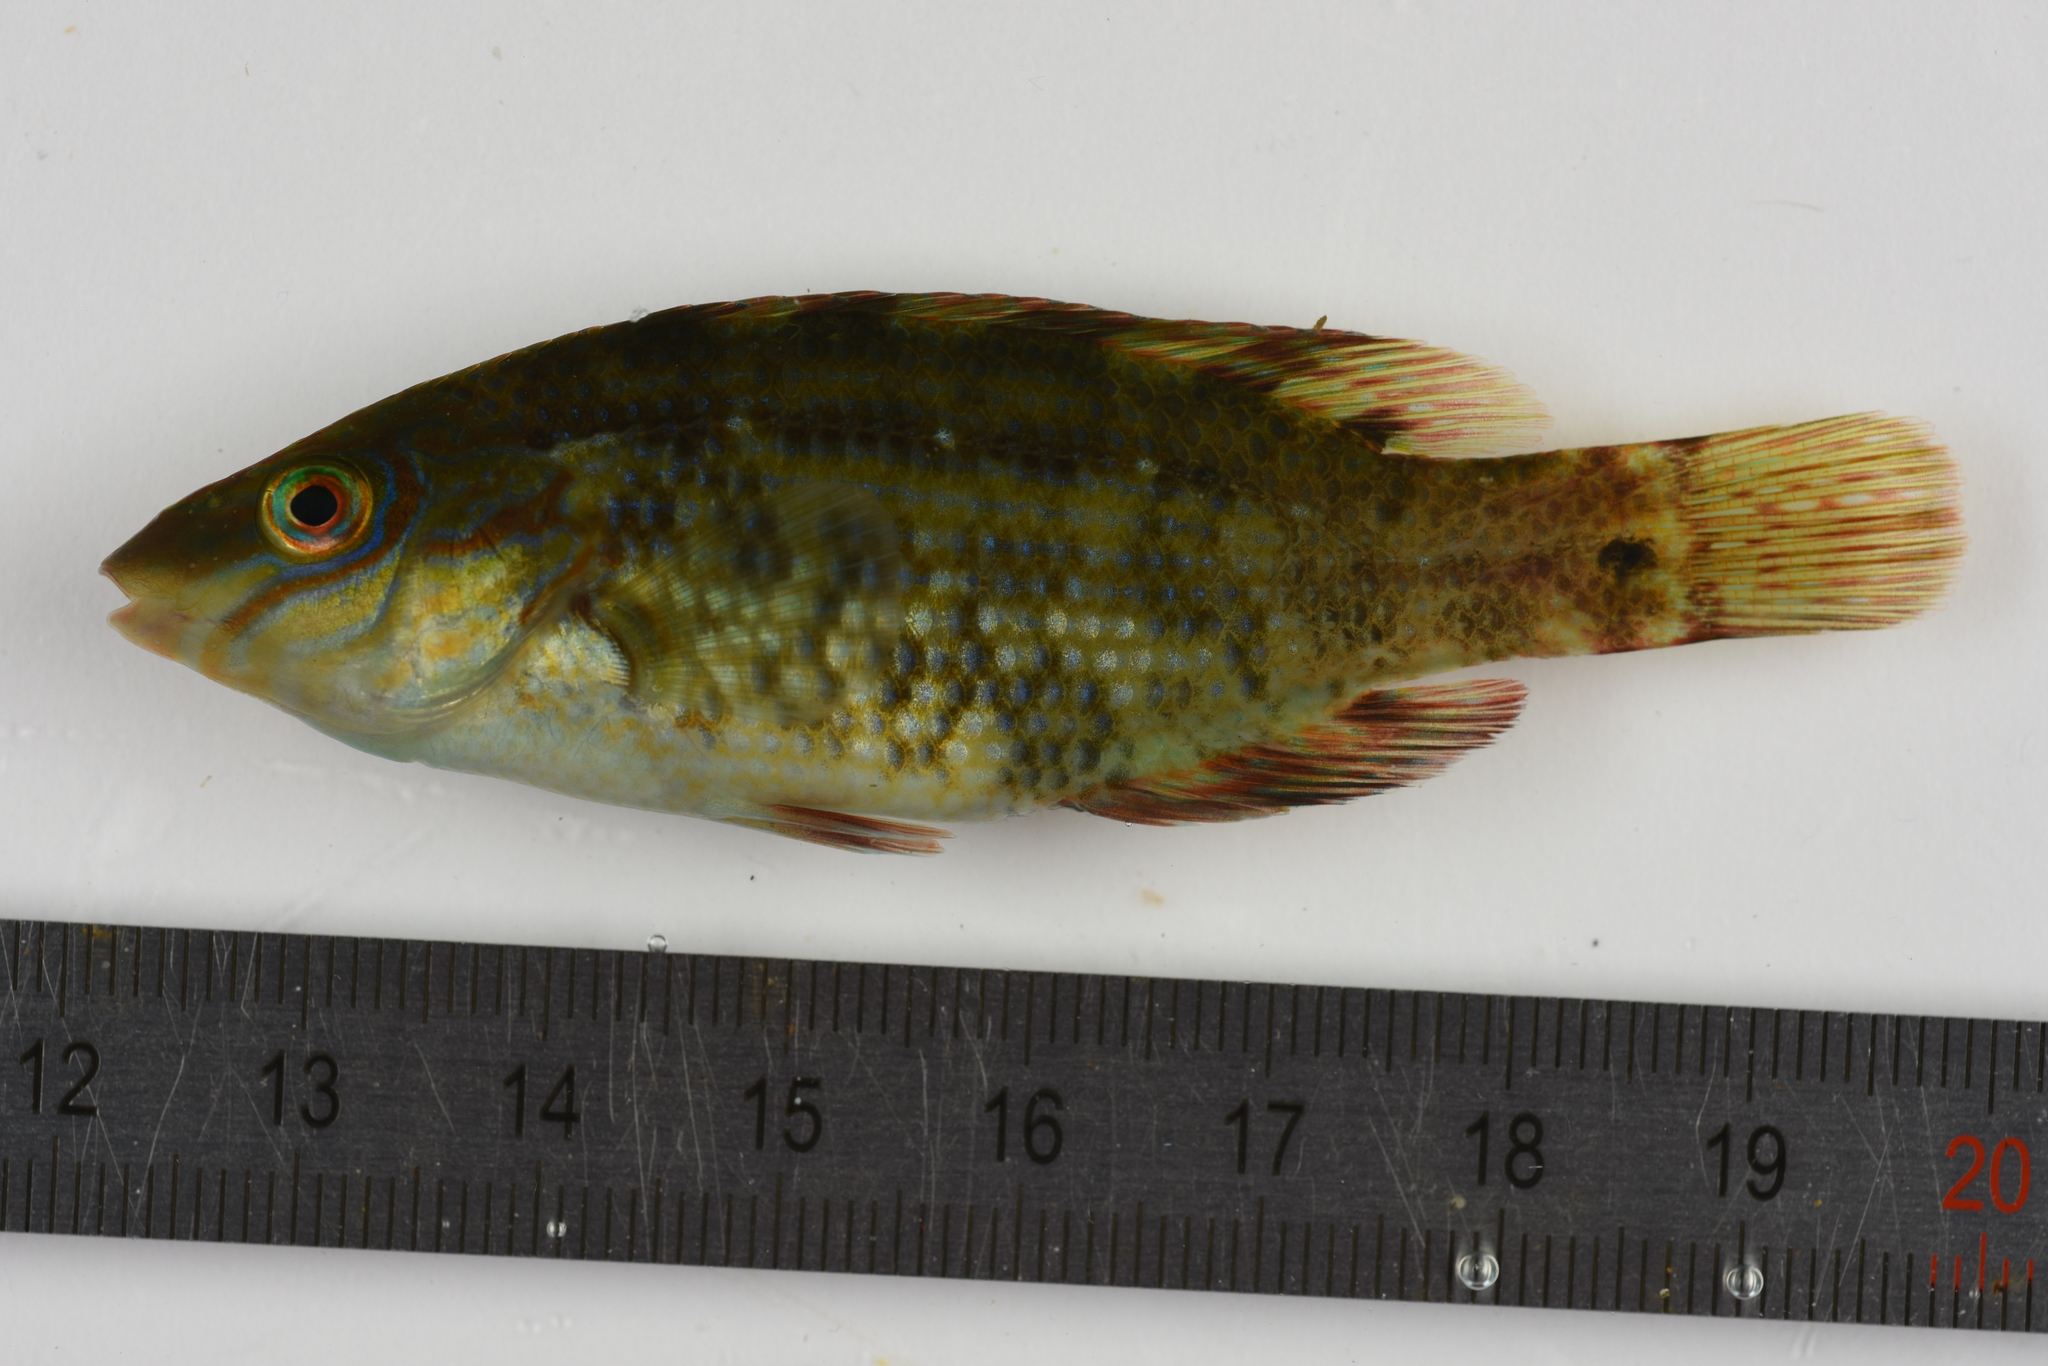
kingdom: Animalia
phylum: Chordata
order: Perciformes
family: Labridae
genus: Symphodus
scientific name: Symphodus melops
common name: Corkwing
